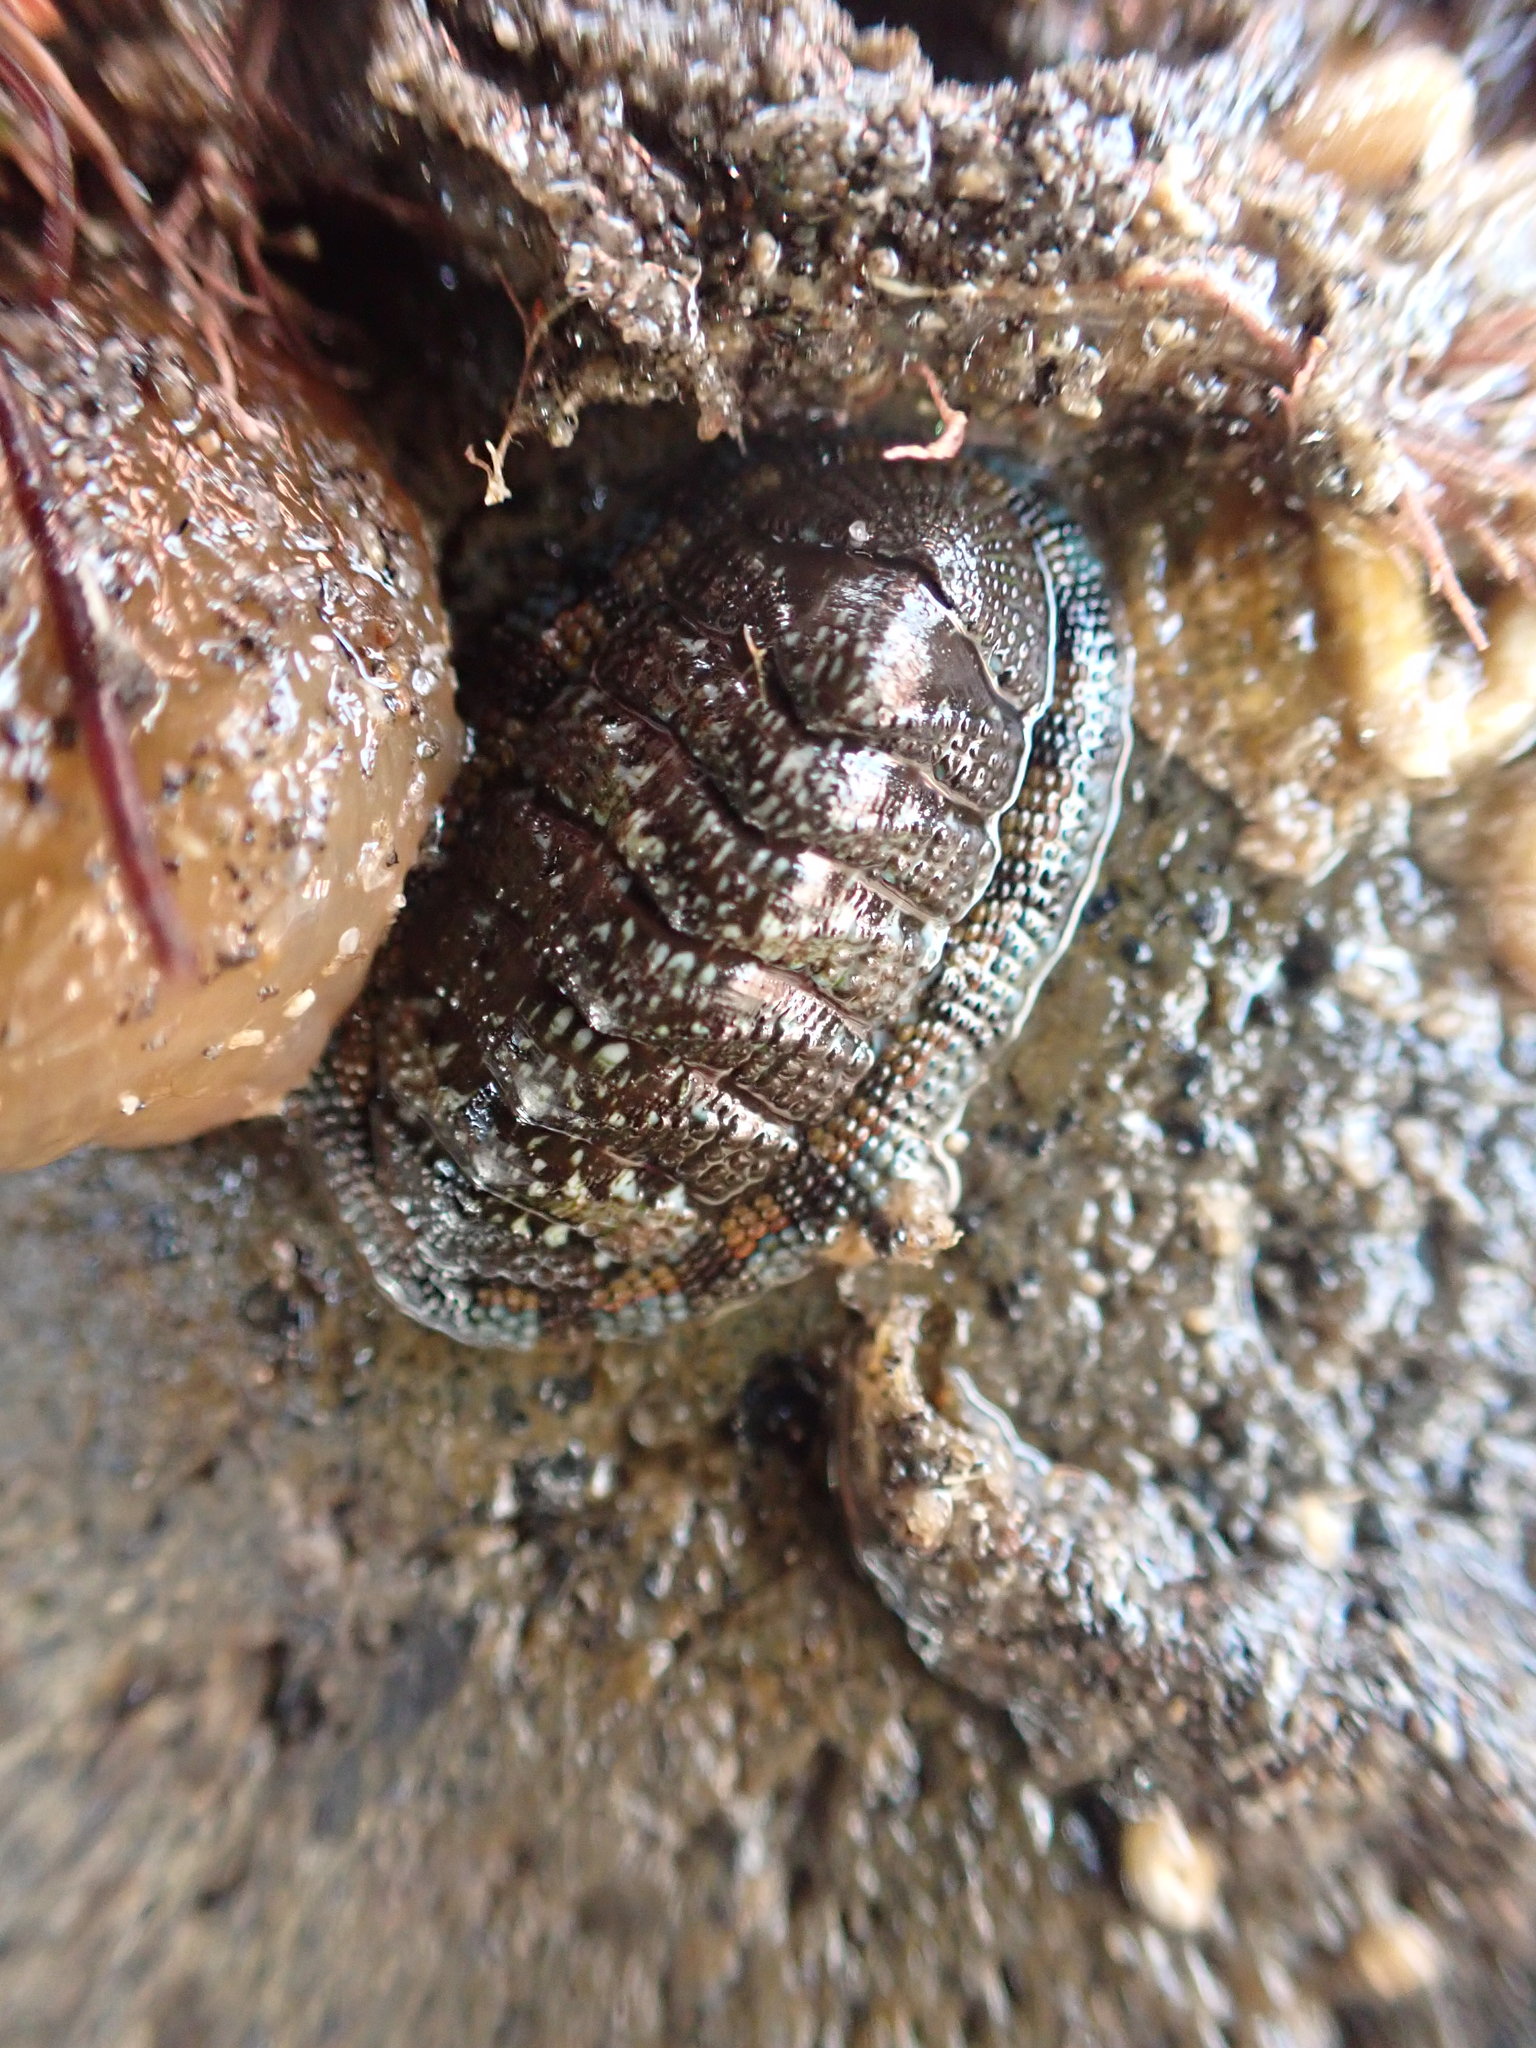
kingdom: Animalia
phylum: Mollusca
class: Polyplacophora
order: Chitonida
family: Chitonidae
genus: Sypharochiton
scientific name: Sypharochiton sinclairi
